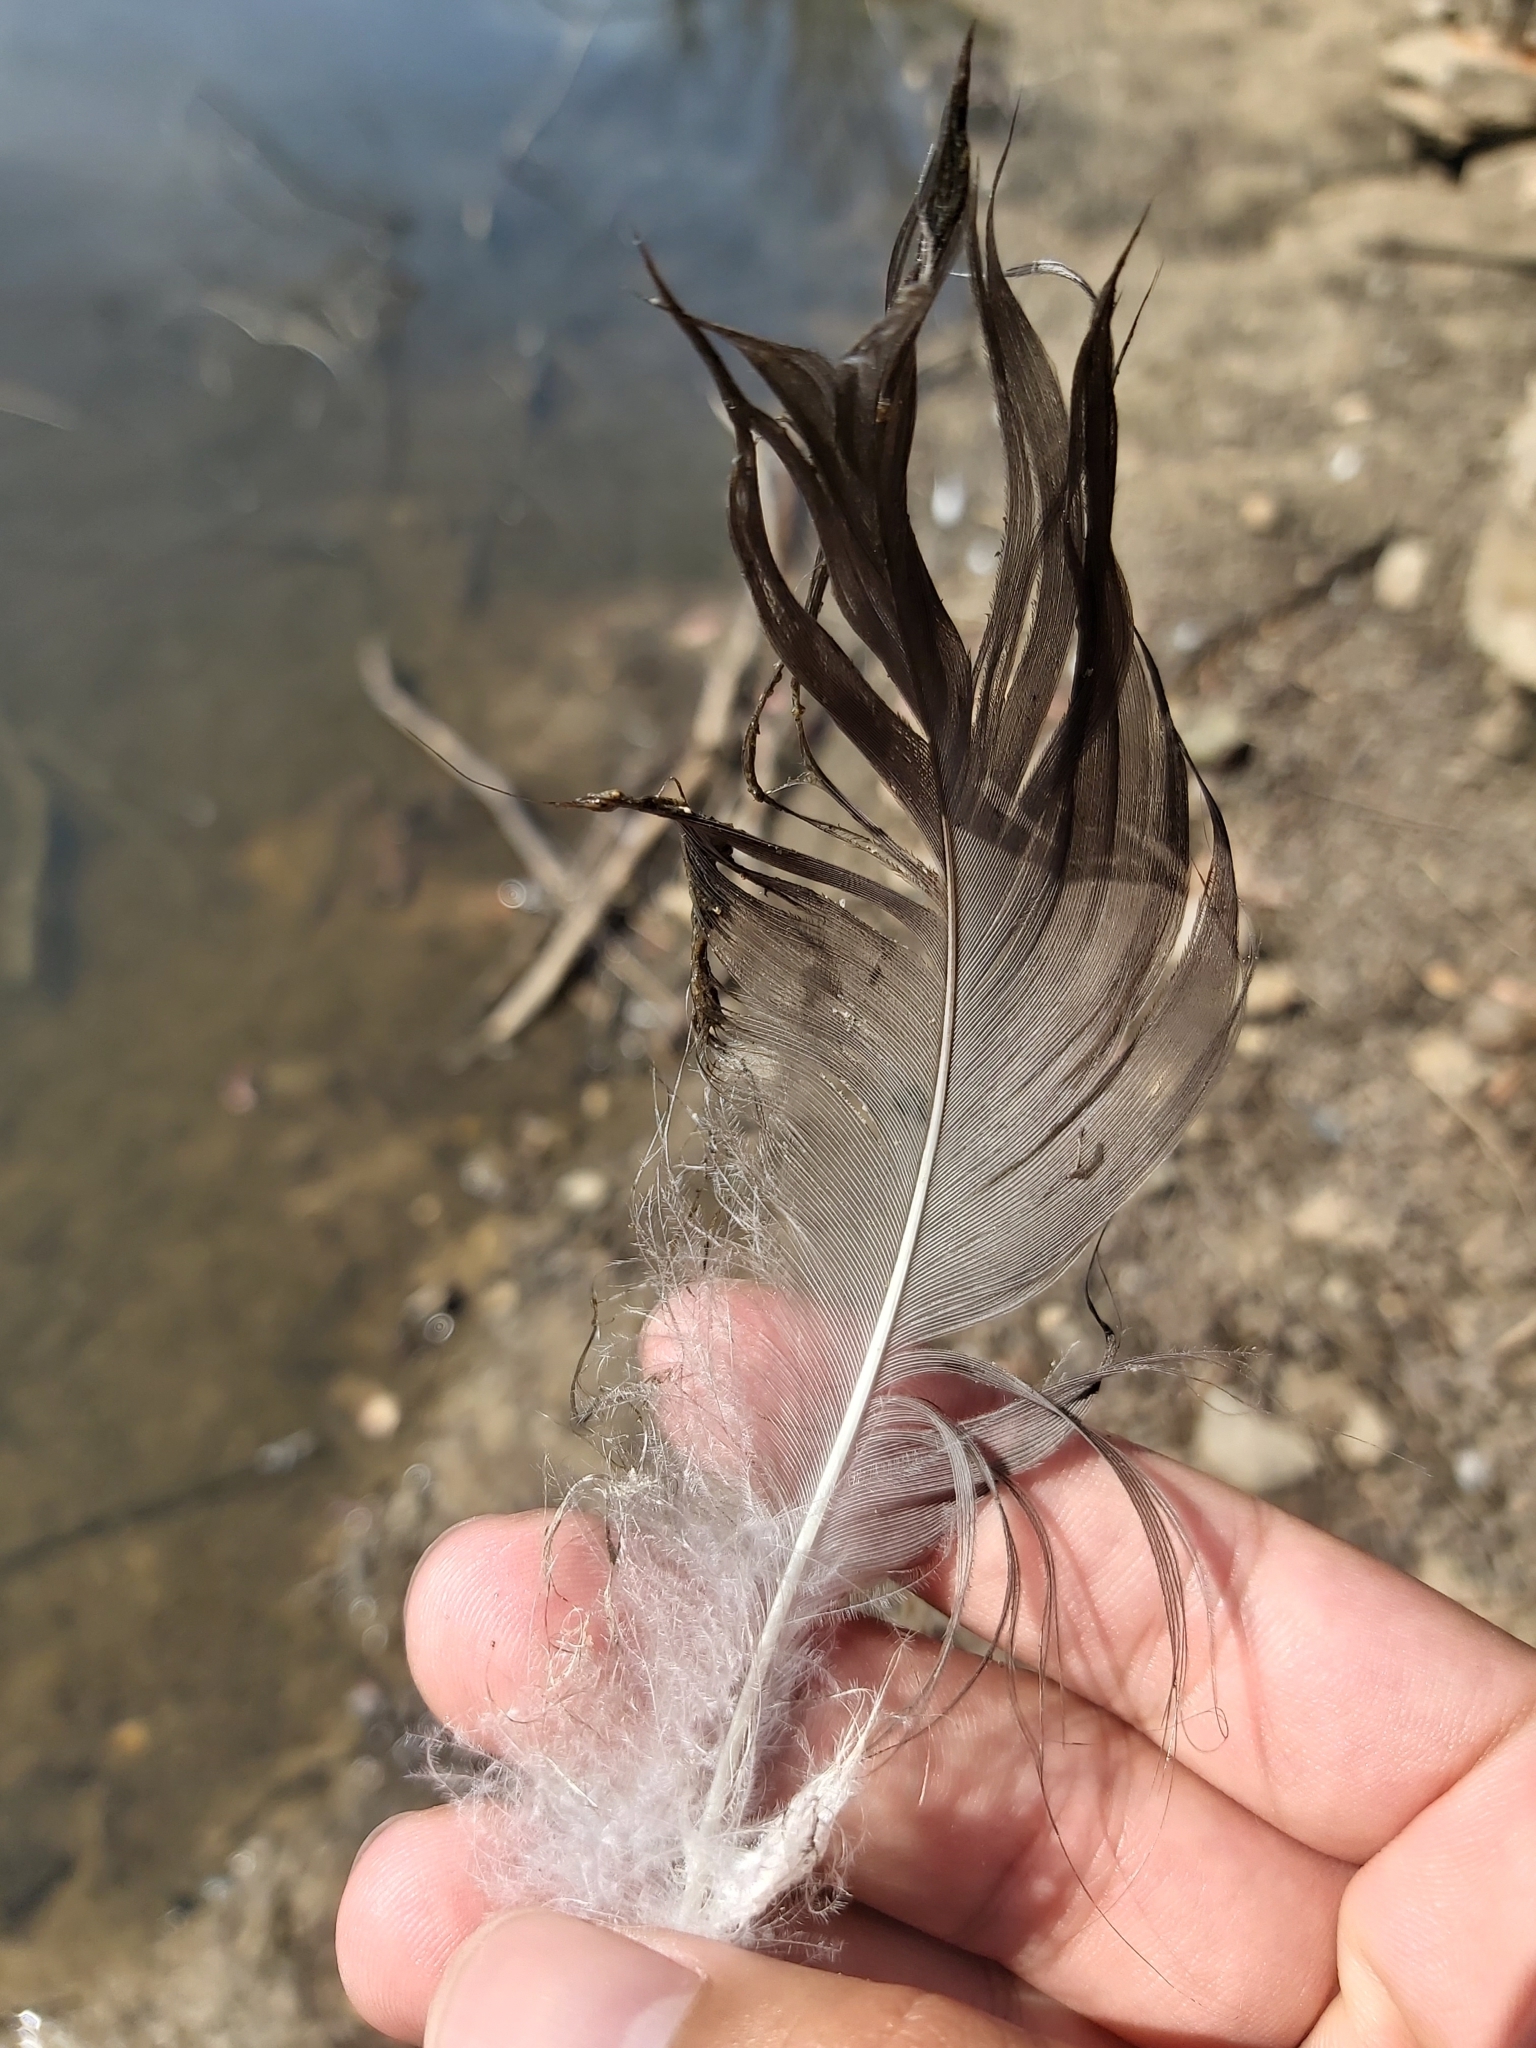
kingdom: Animalia
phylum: Chordata
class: Aves
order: Anseriformes
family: Anatidae
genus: Cygnus
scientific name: Cygnus atratus
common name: Black swan
